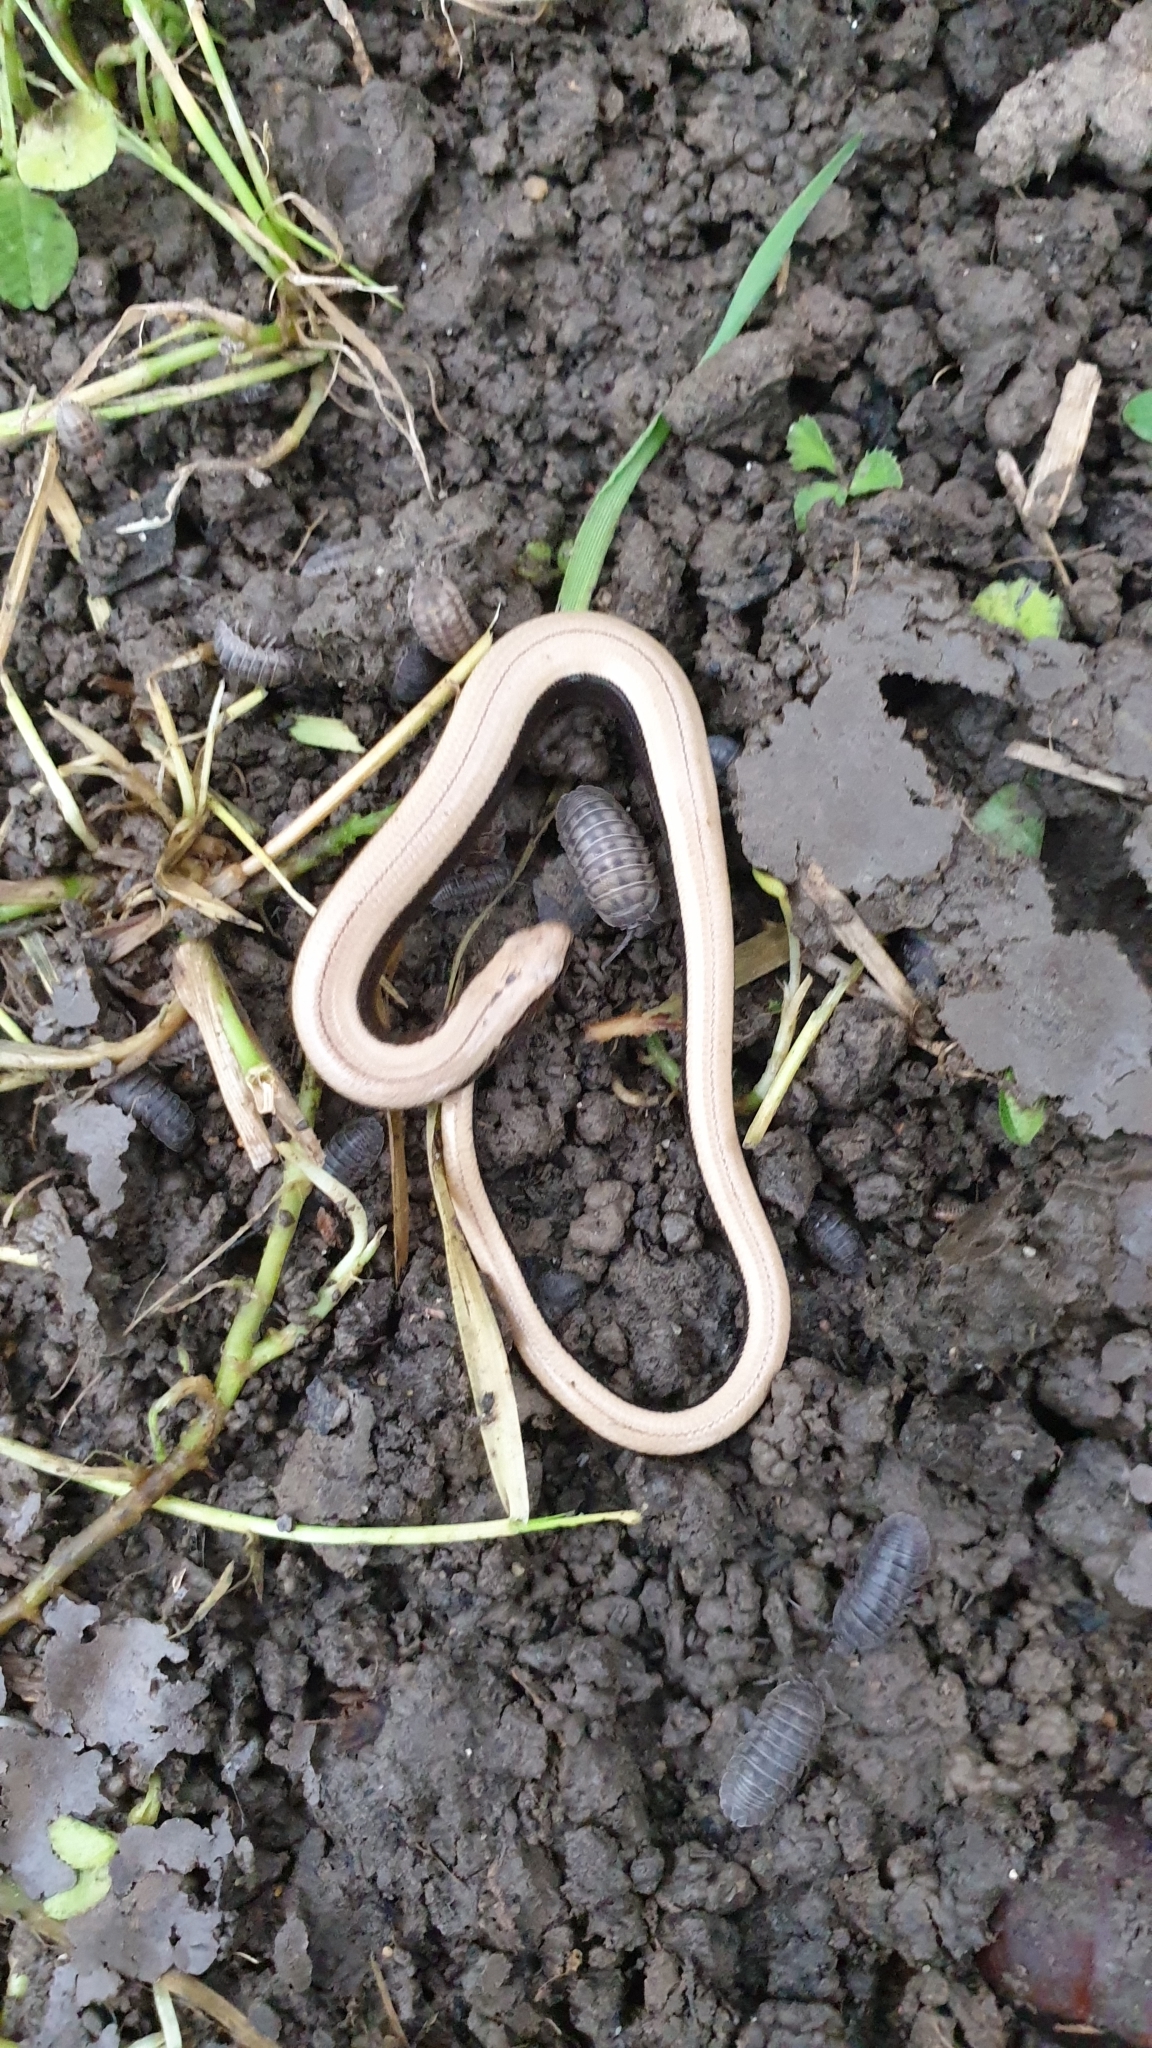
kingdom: Animalia
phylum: Chordata
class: Squamata
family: Anguidae
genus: Anguis
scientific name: Anguis fragilis
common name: Slow worm
